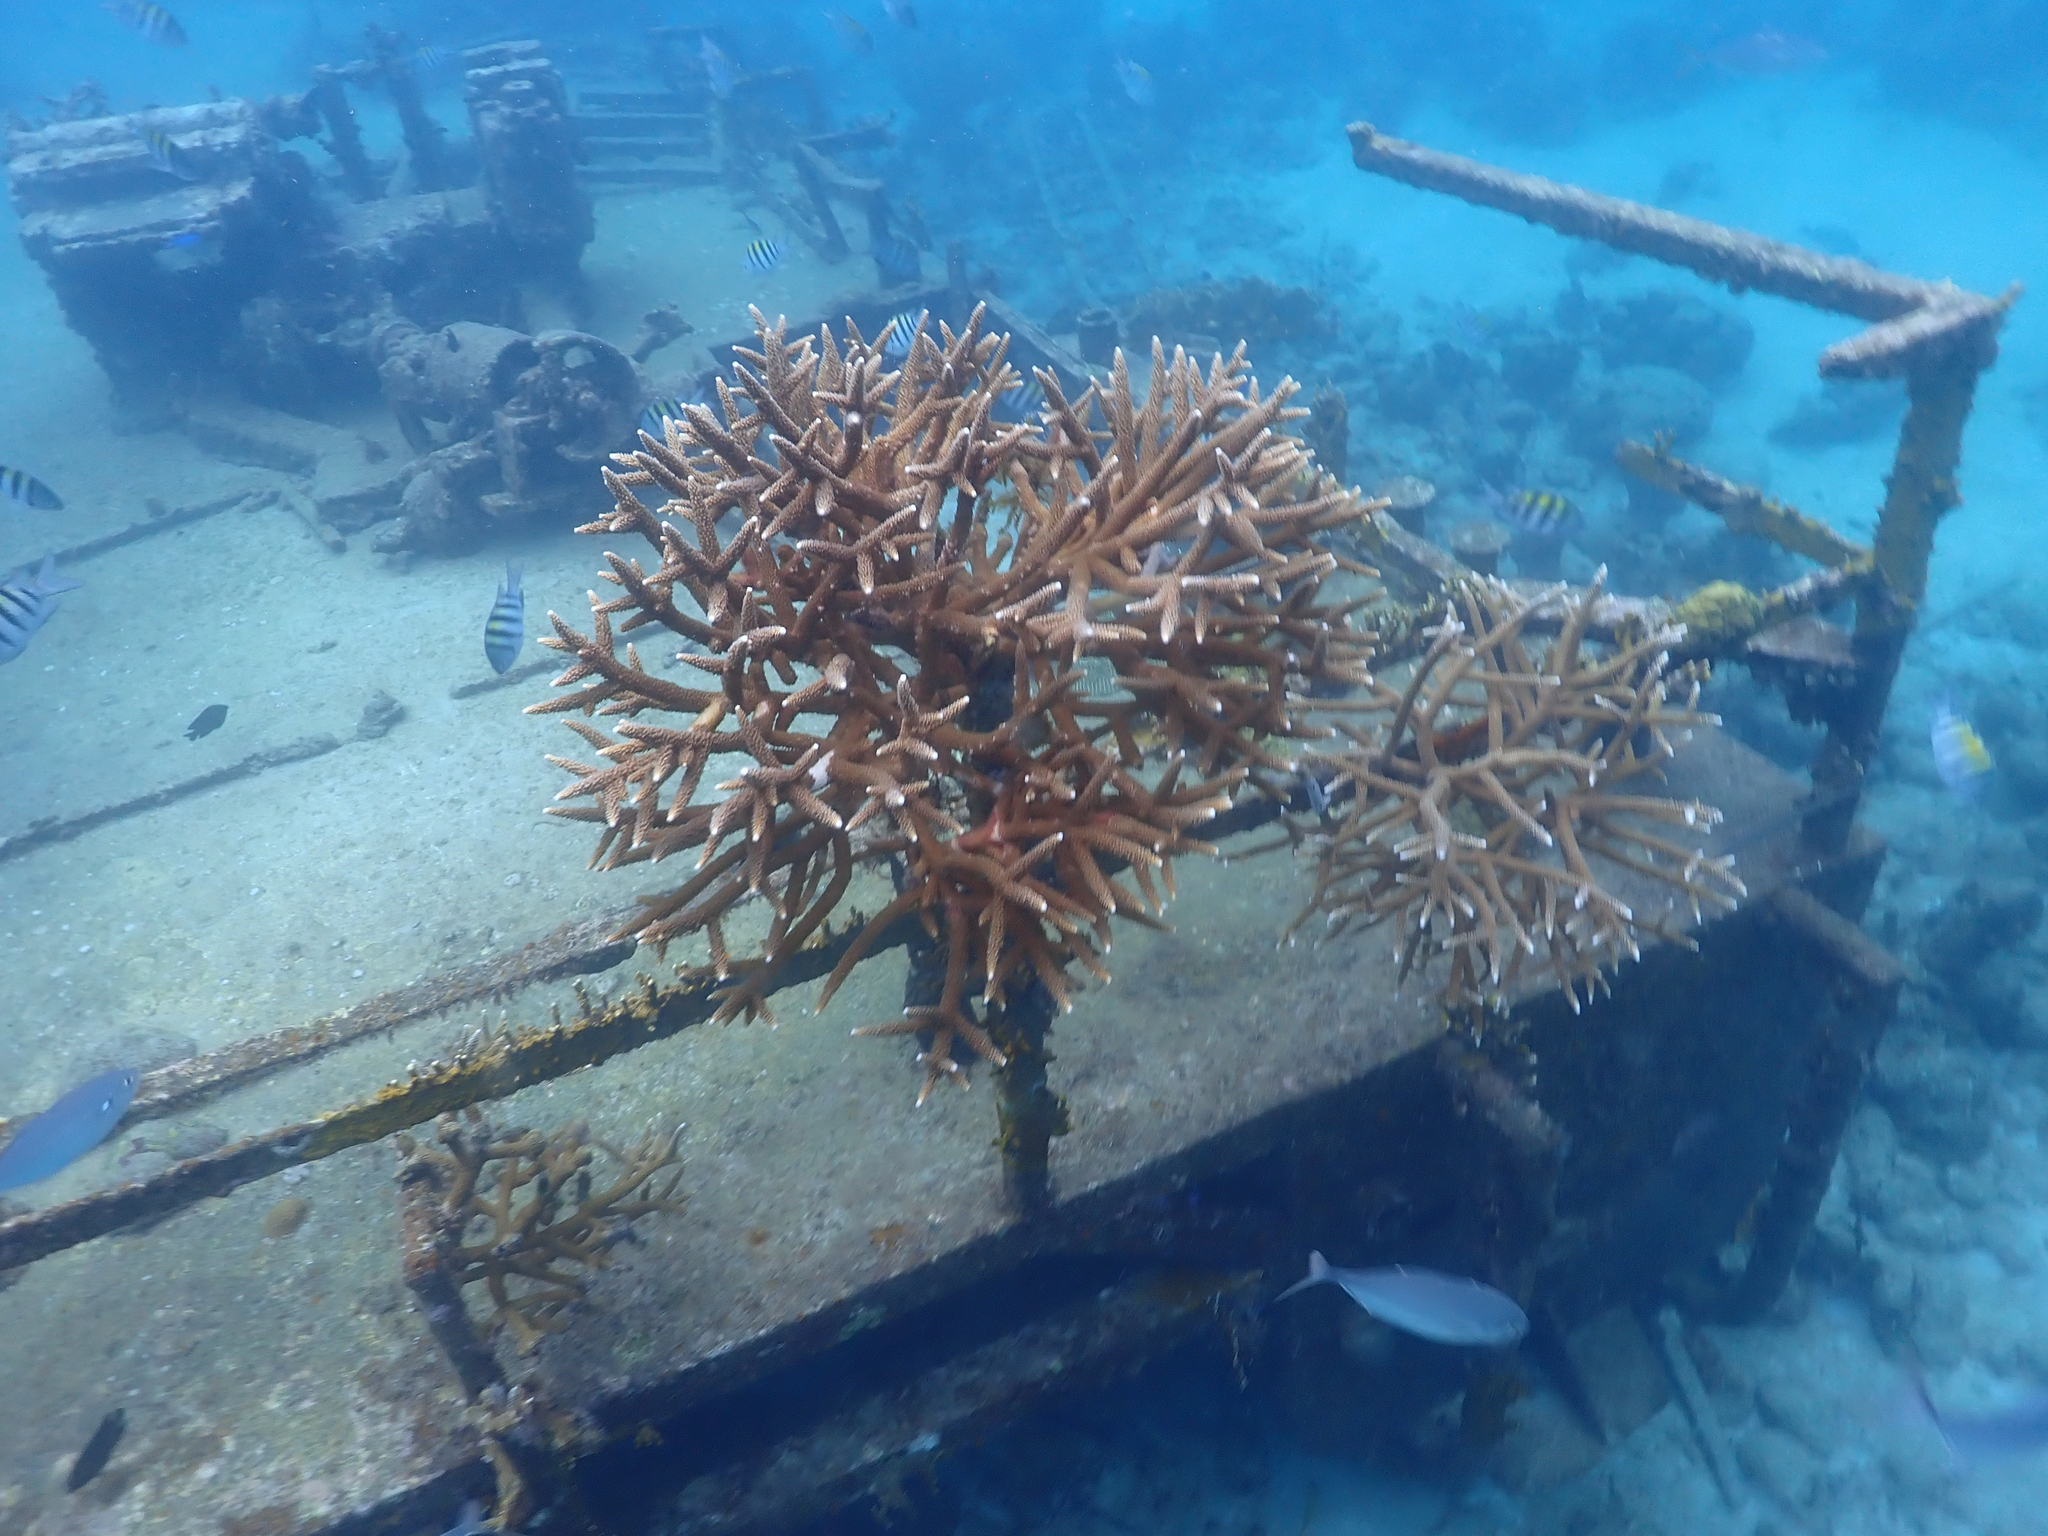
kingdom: Animalia
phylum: Cnidaria
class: Anthozoa
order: Scleractinia
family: Acroporidae
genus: Acropora
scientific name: Acropora cervicornis
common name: Staghorn coral
